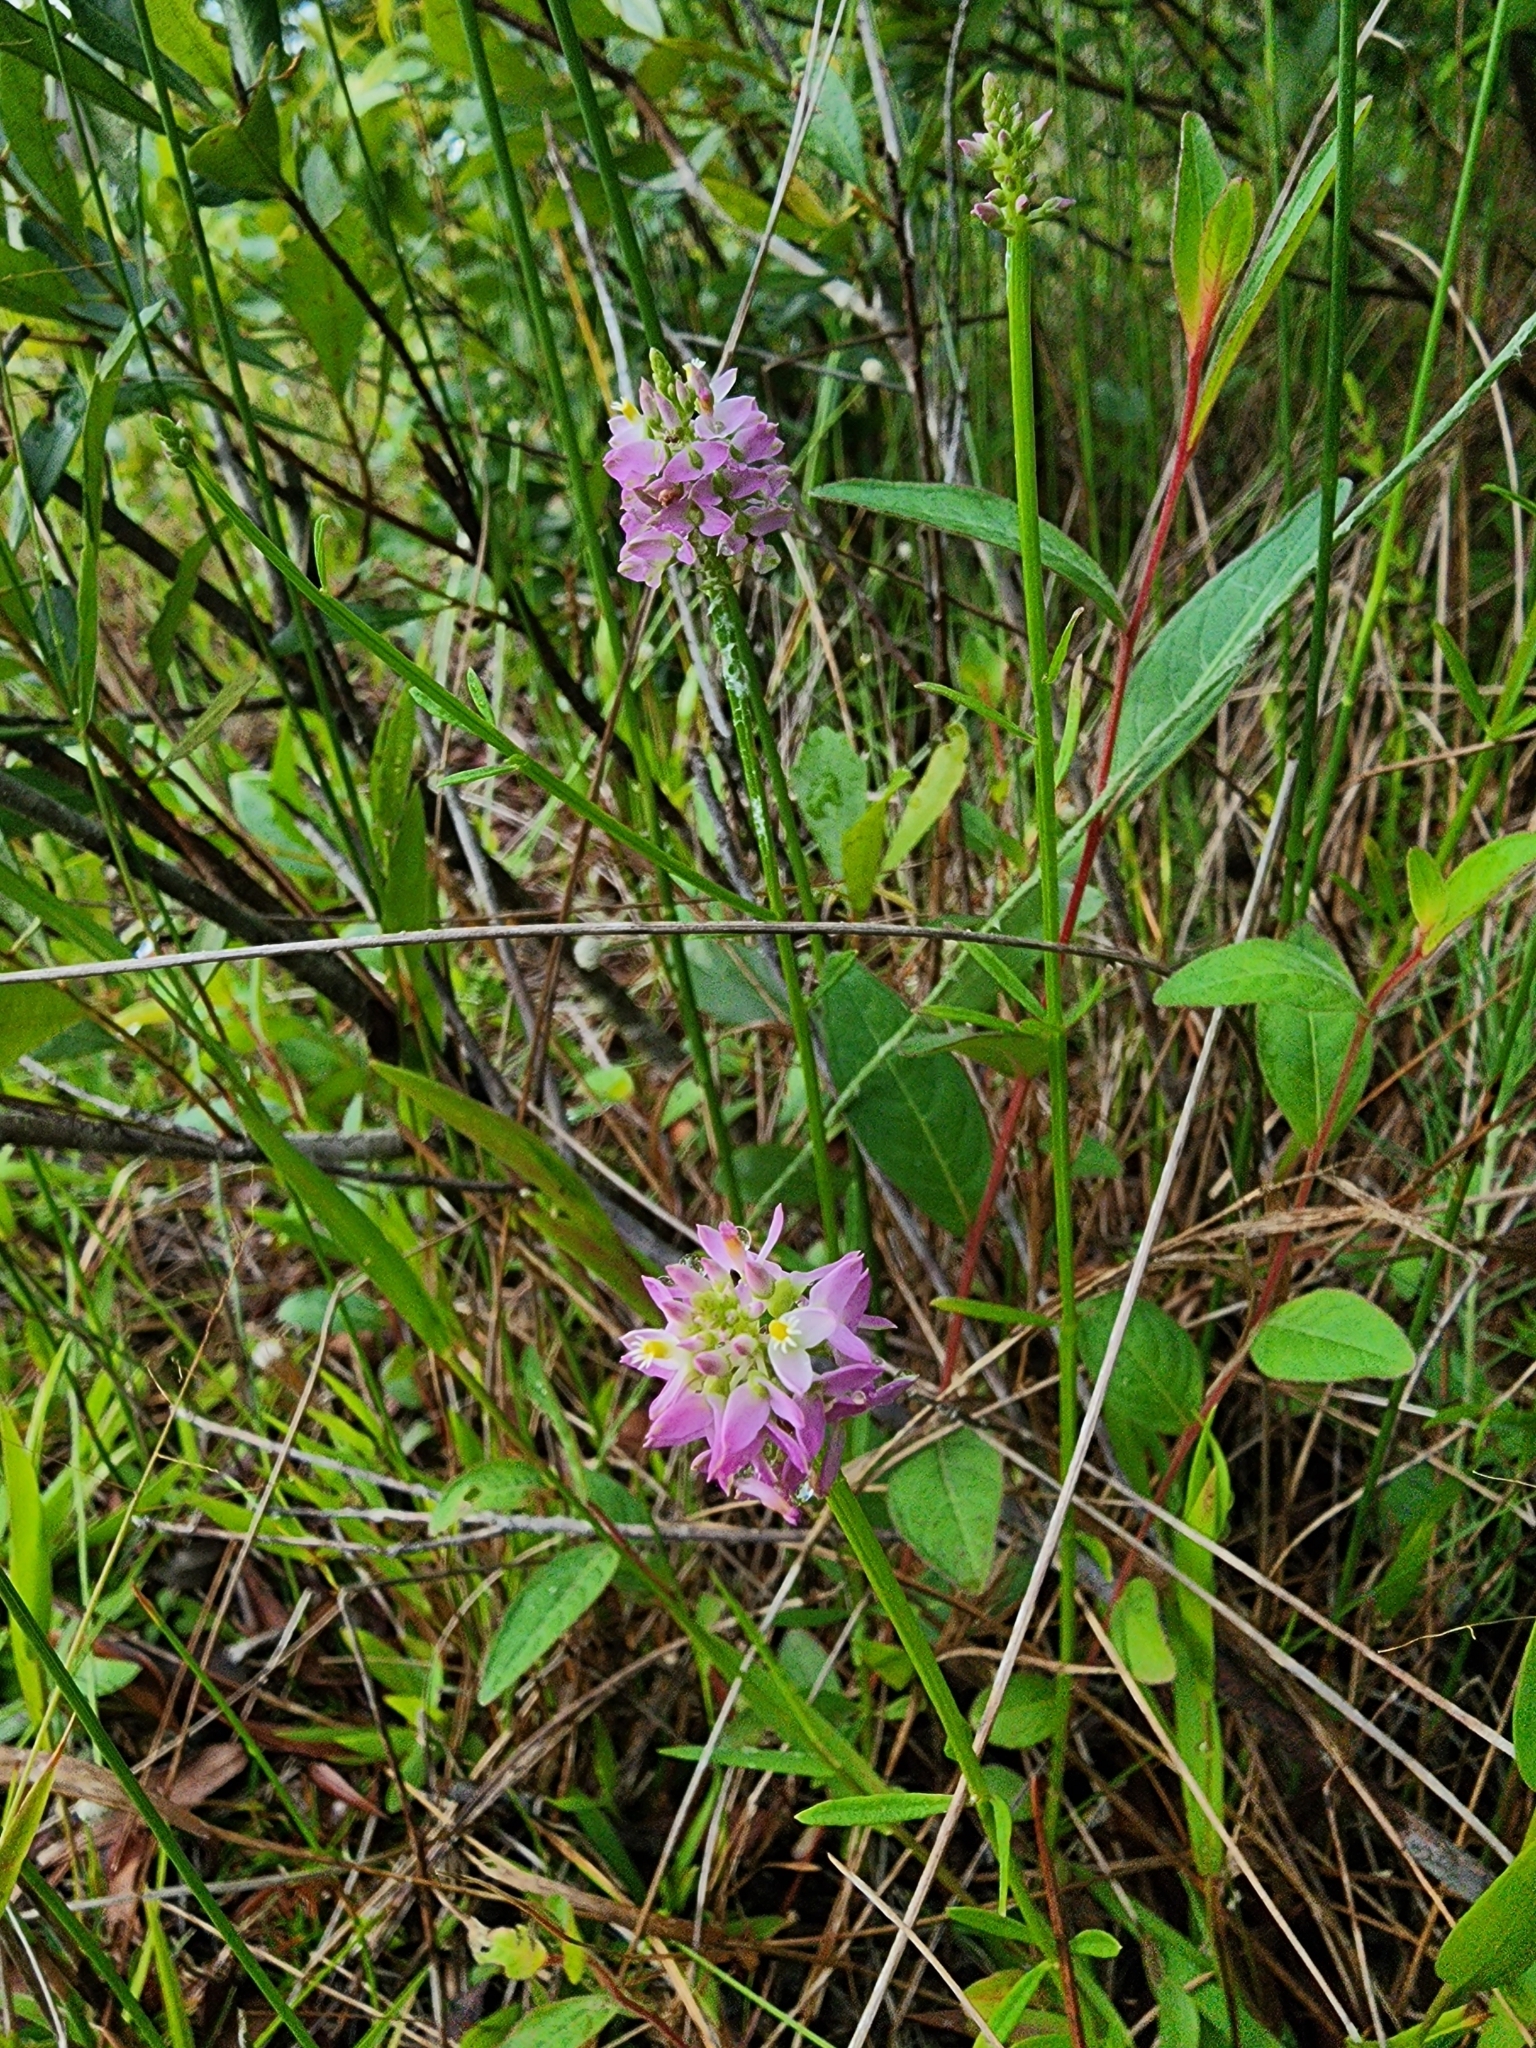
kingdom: Plantae
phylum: Tracheophyta
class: Magnoliopsida
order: Fabales
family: Polygalaceae
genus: Polygala
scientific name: Polygala brevifolia
